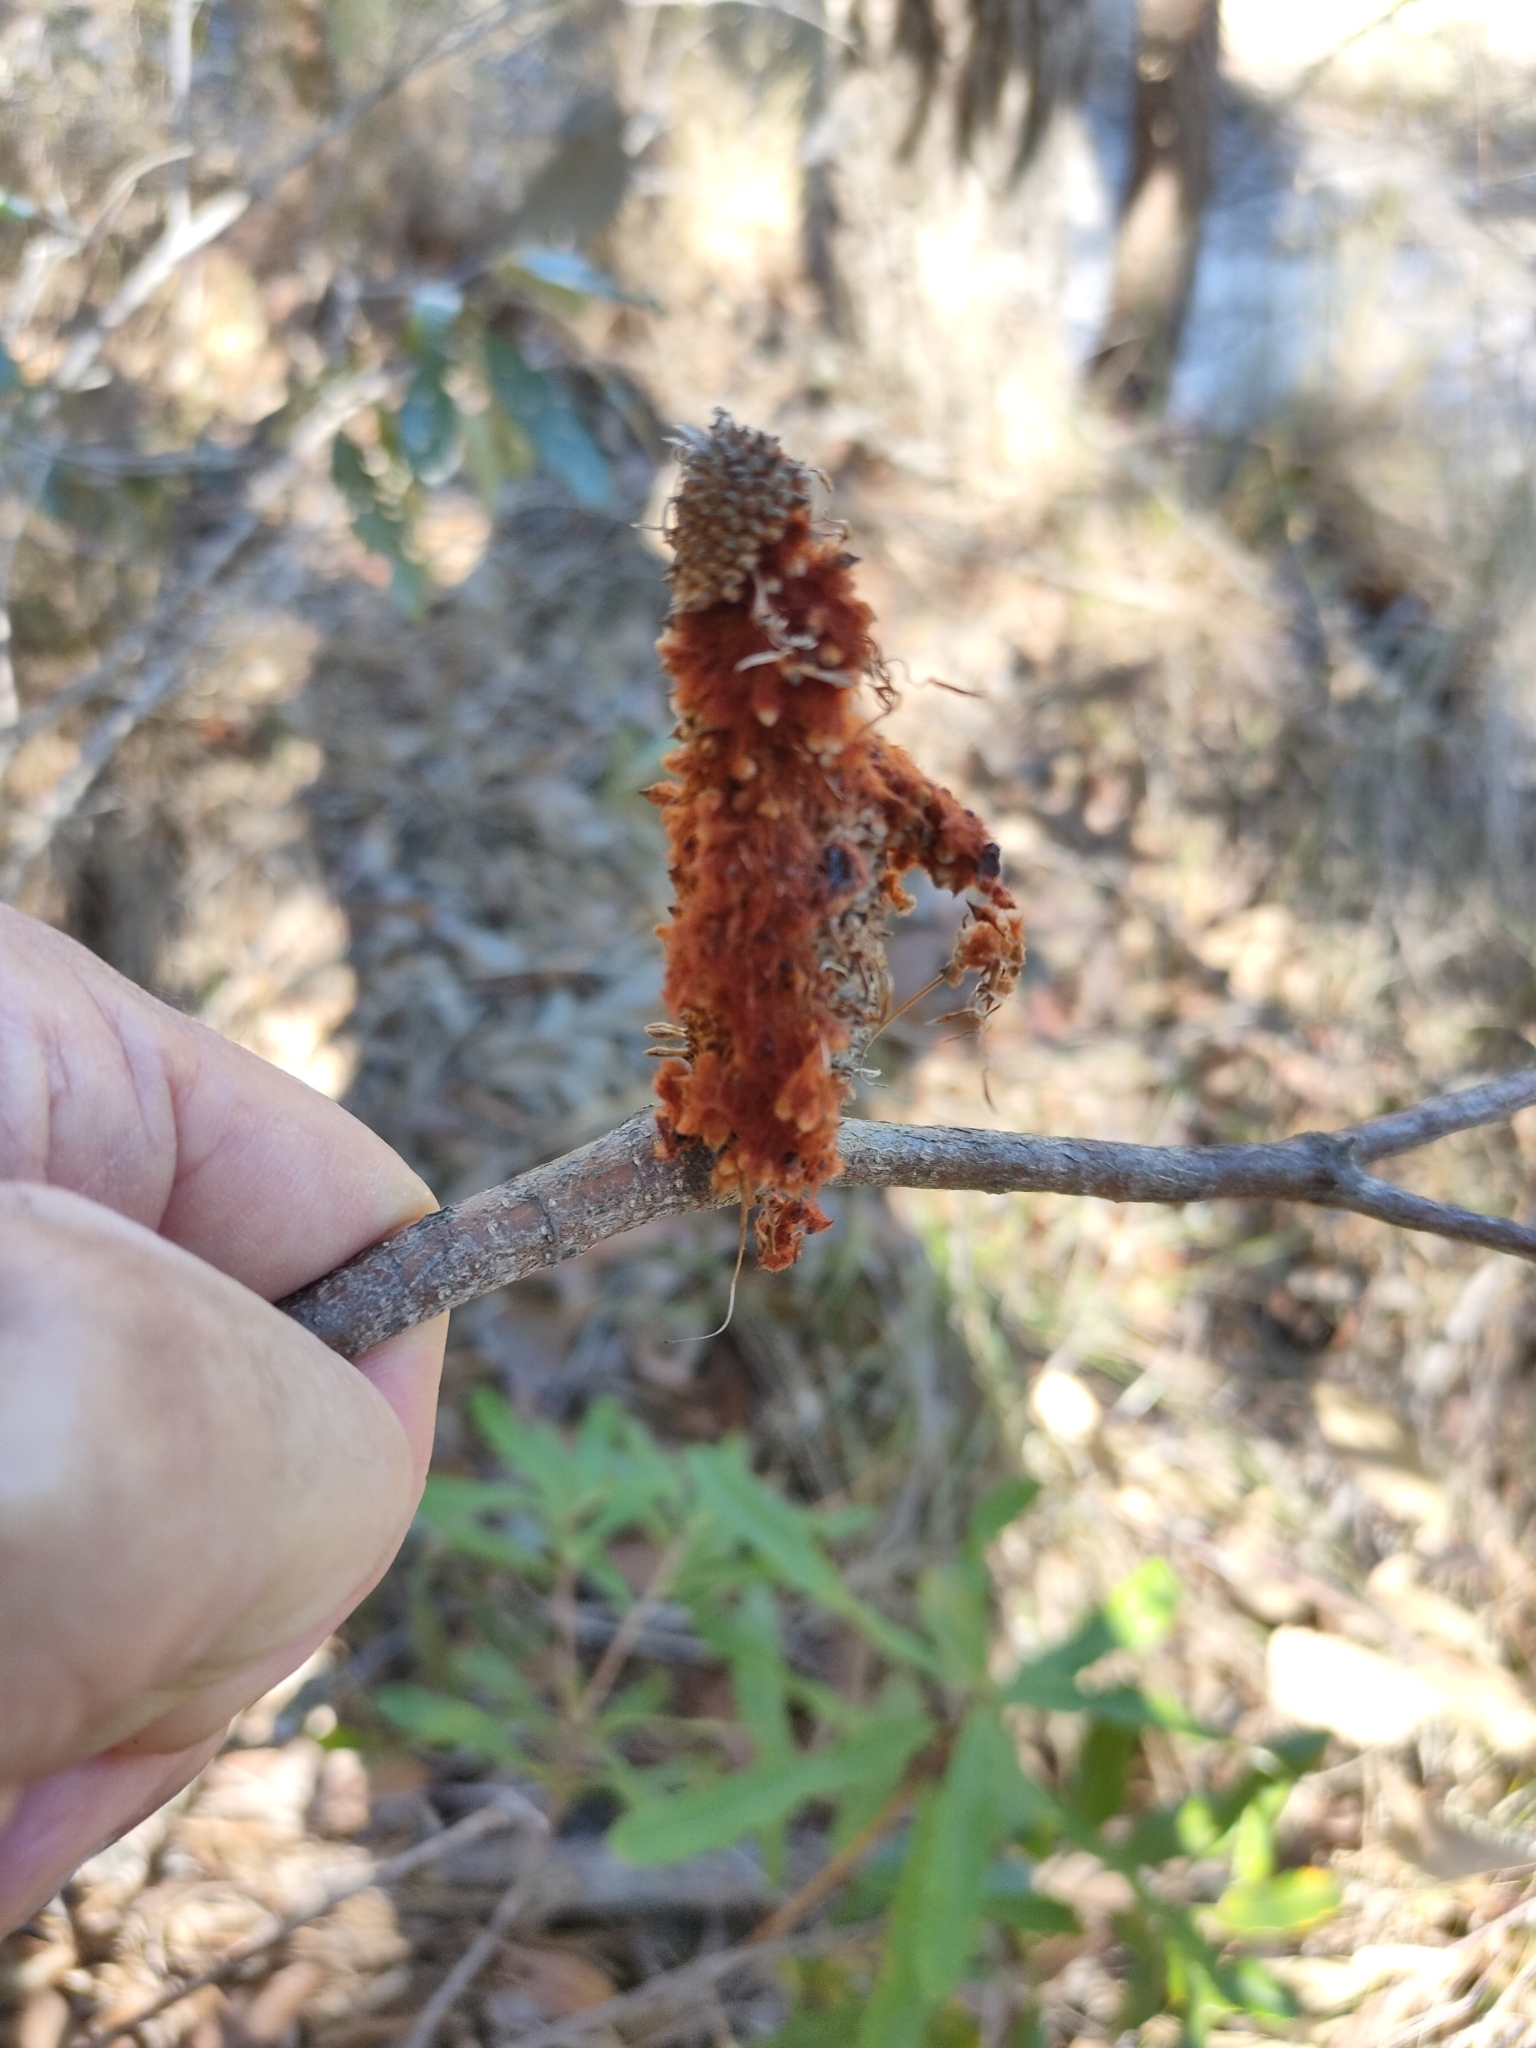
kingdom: Plantae
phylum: Tracheophyta
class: Magnoliopsida
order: Proteales
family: Proteaceae
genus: Banksia
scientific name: Banksia oblongifolia
